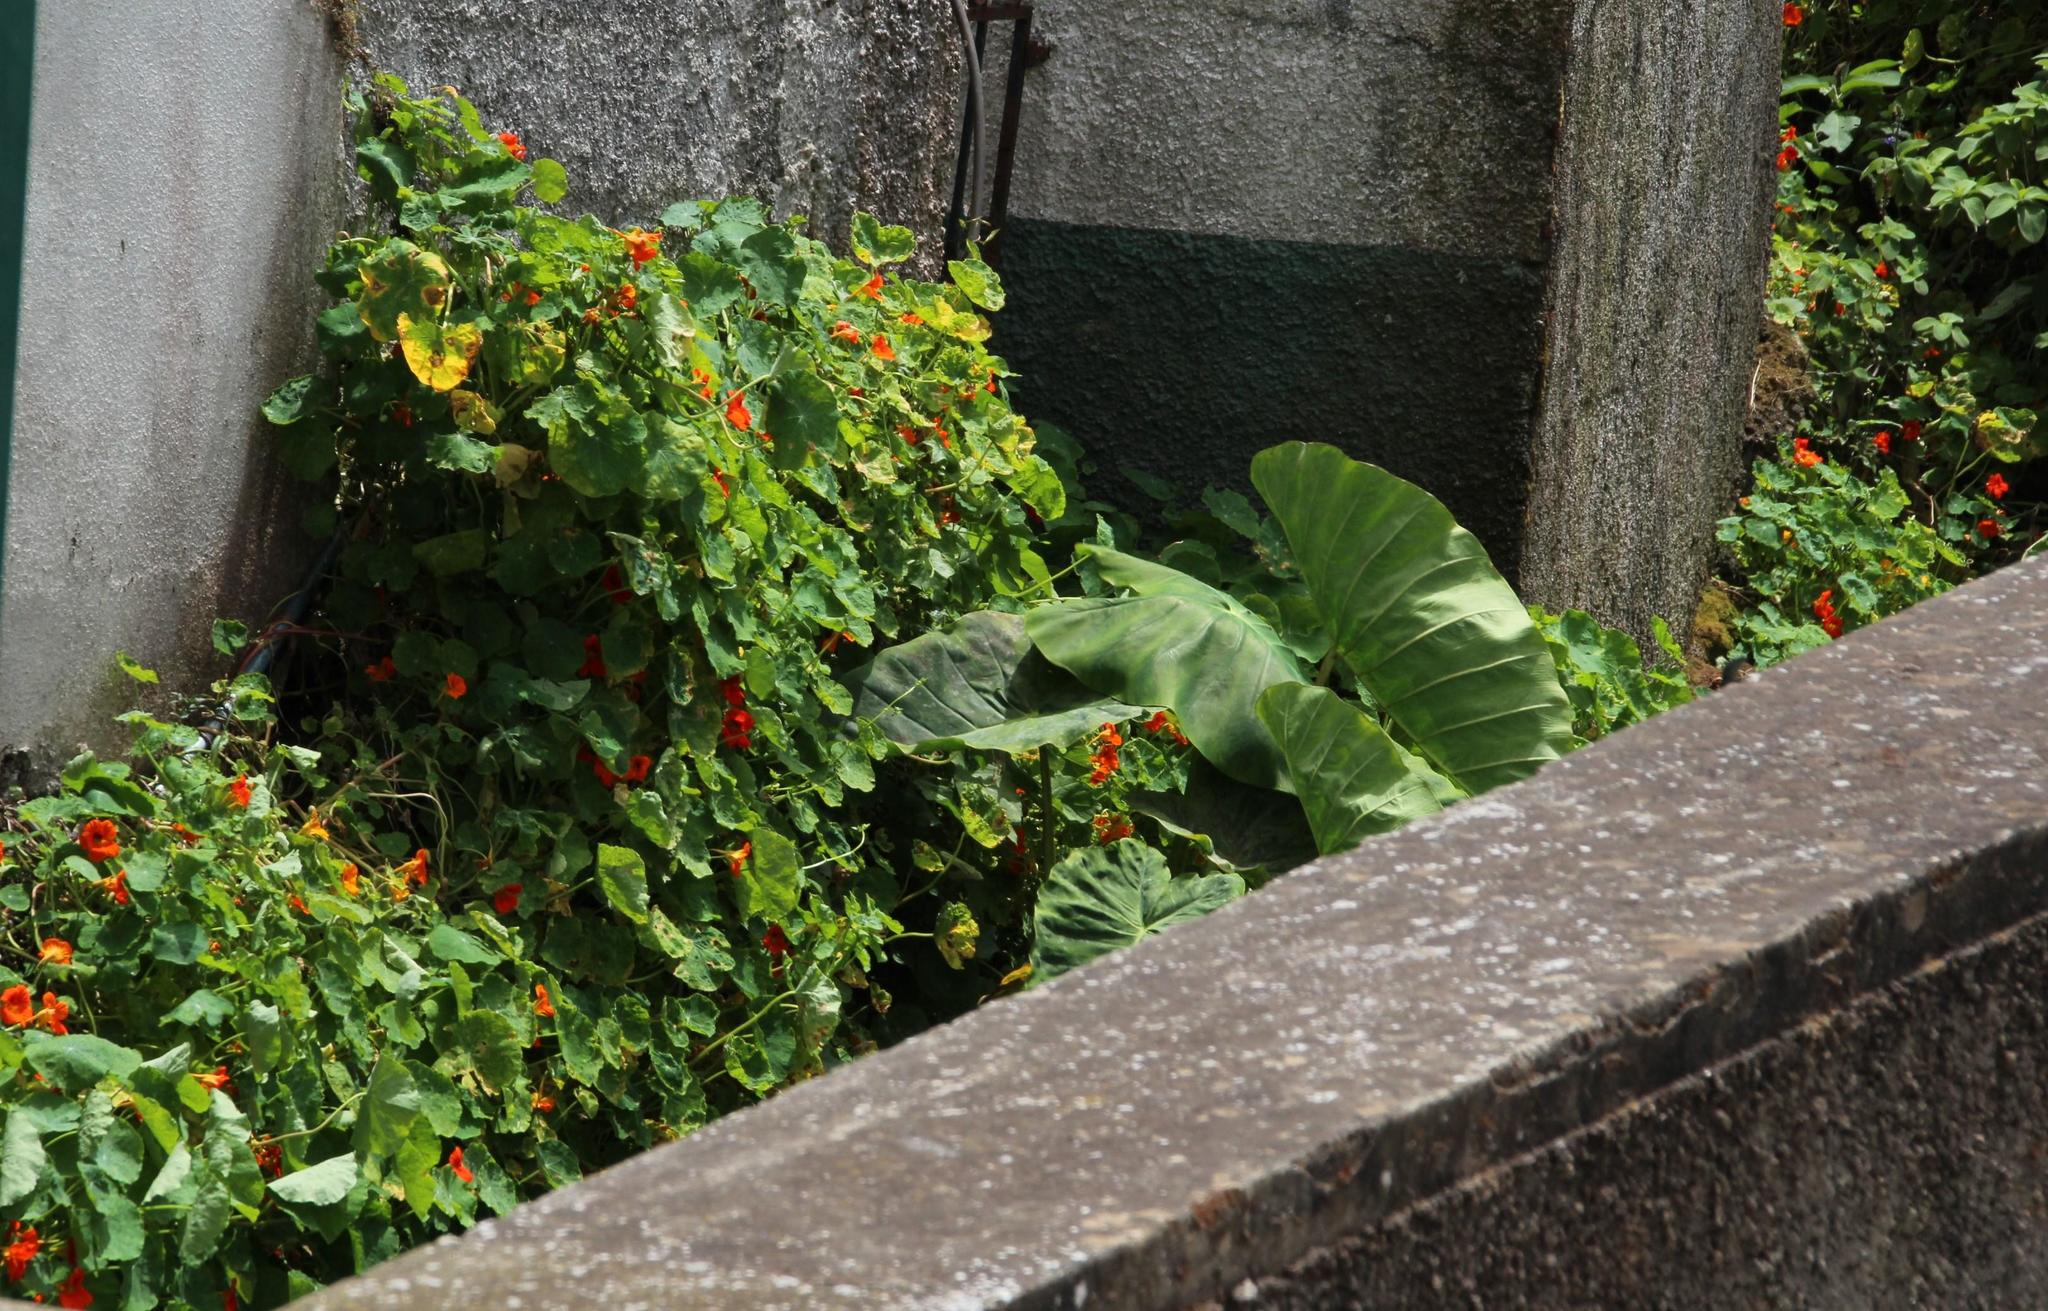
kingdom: Plantae
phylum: Tracheophyta
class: Magnoliopsida
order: Brassicales
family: Tropaeolaceae
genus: Tropaeolum
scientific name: Tropaeolum majus
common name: Nasturtium
